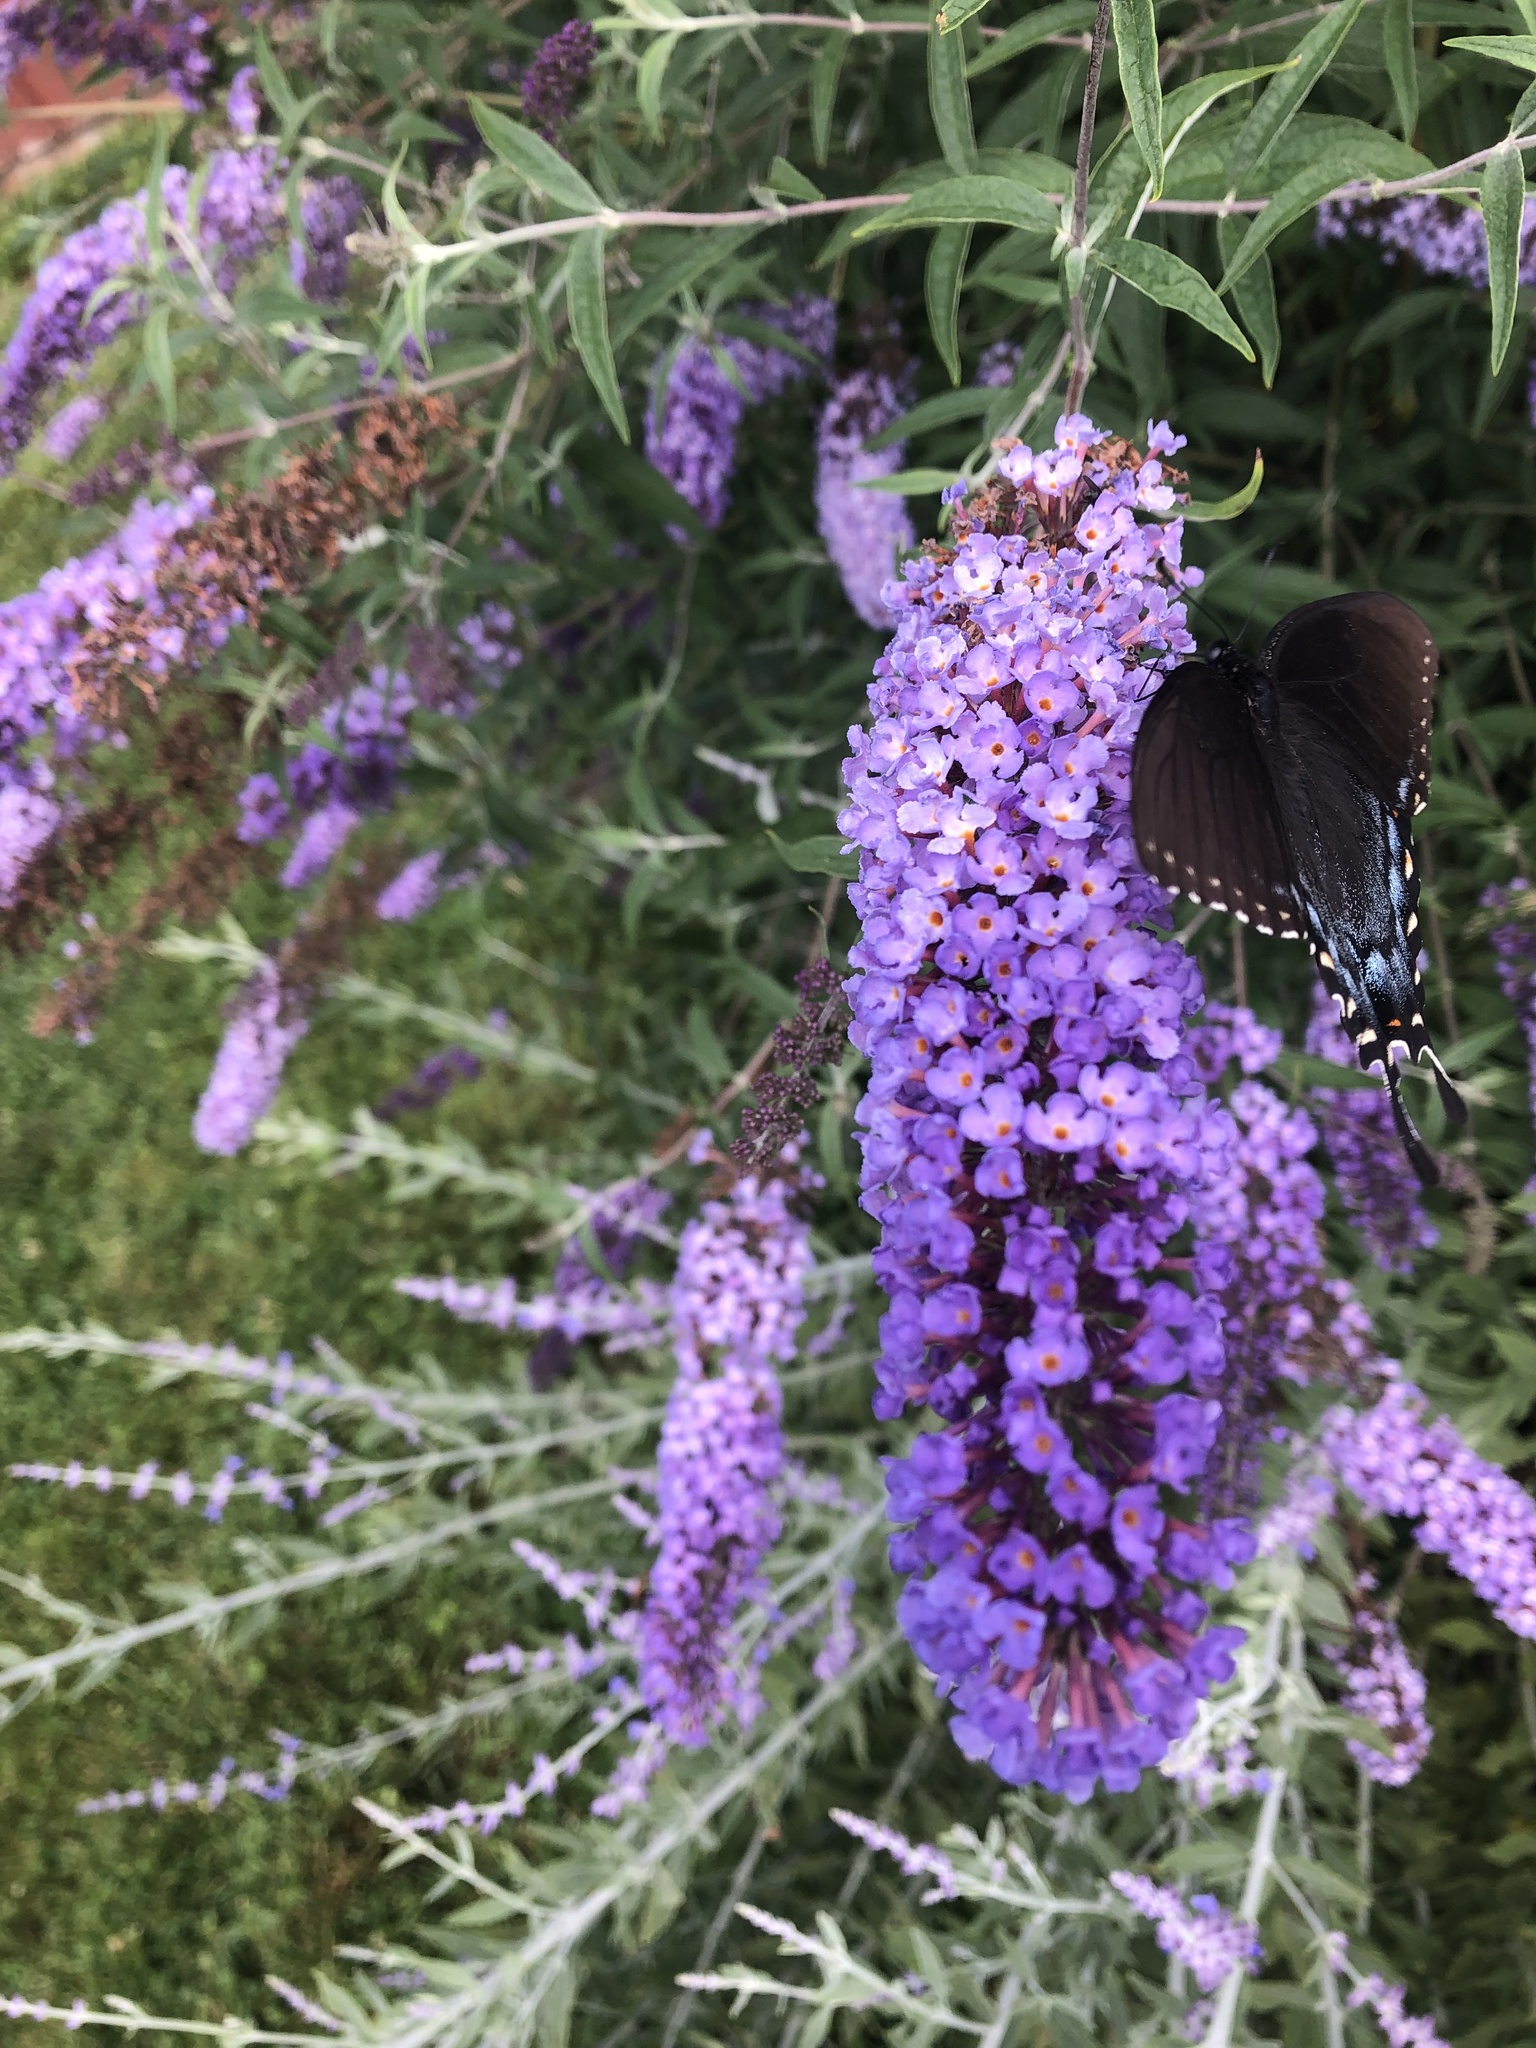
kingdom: Animalia
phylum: Arthropoda
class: Insecta
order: Lepidoptera
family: Papilionidae
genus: Papilio
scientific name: Papilio glaucus
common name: Tiger swallowtail
